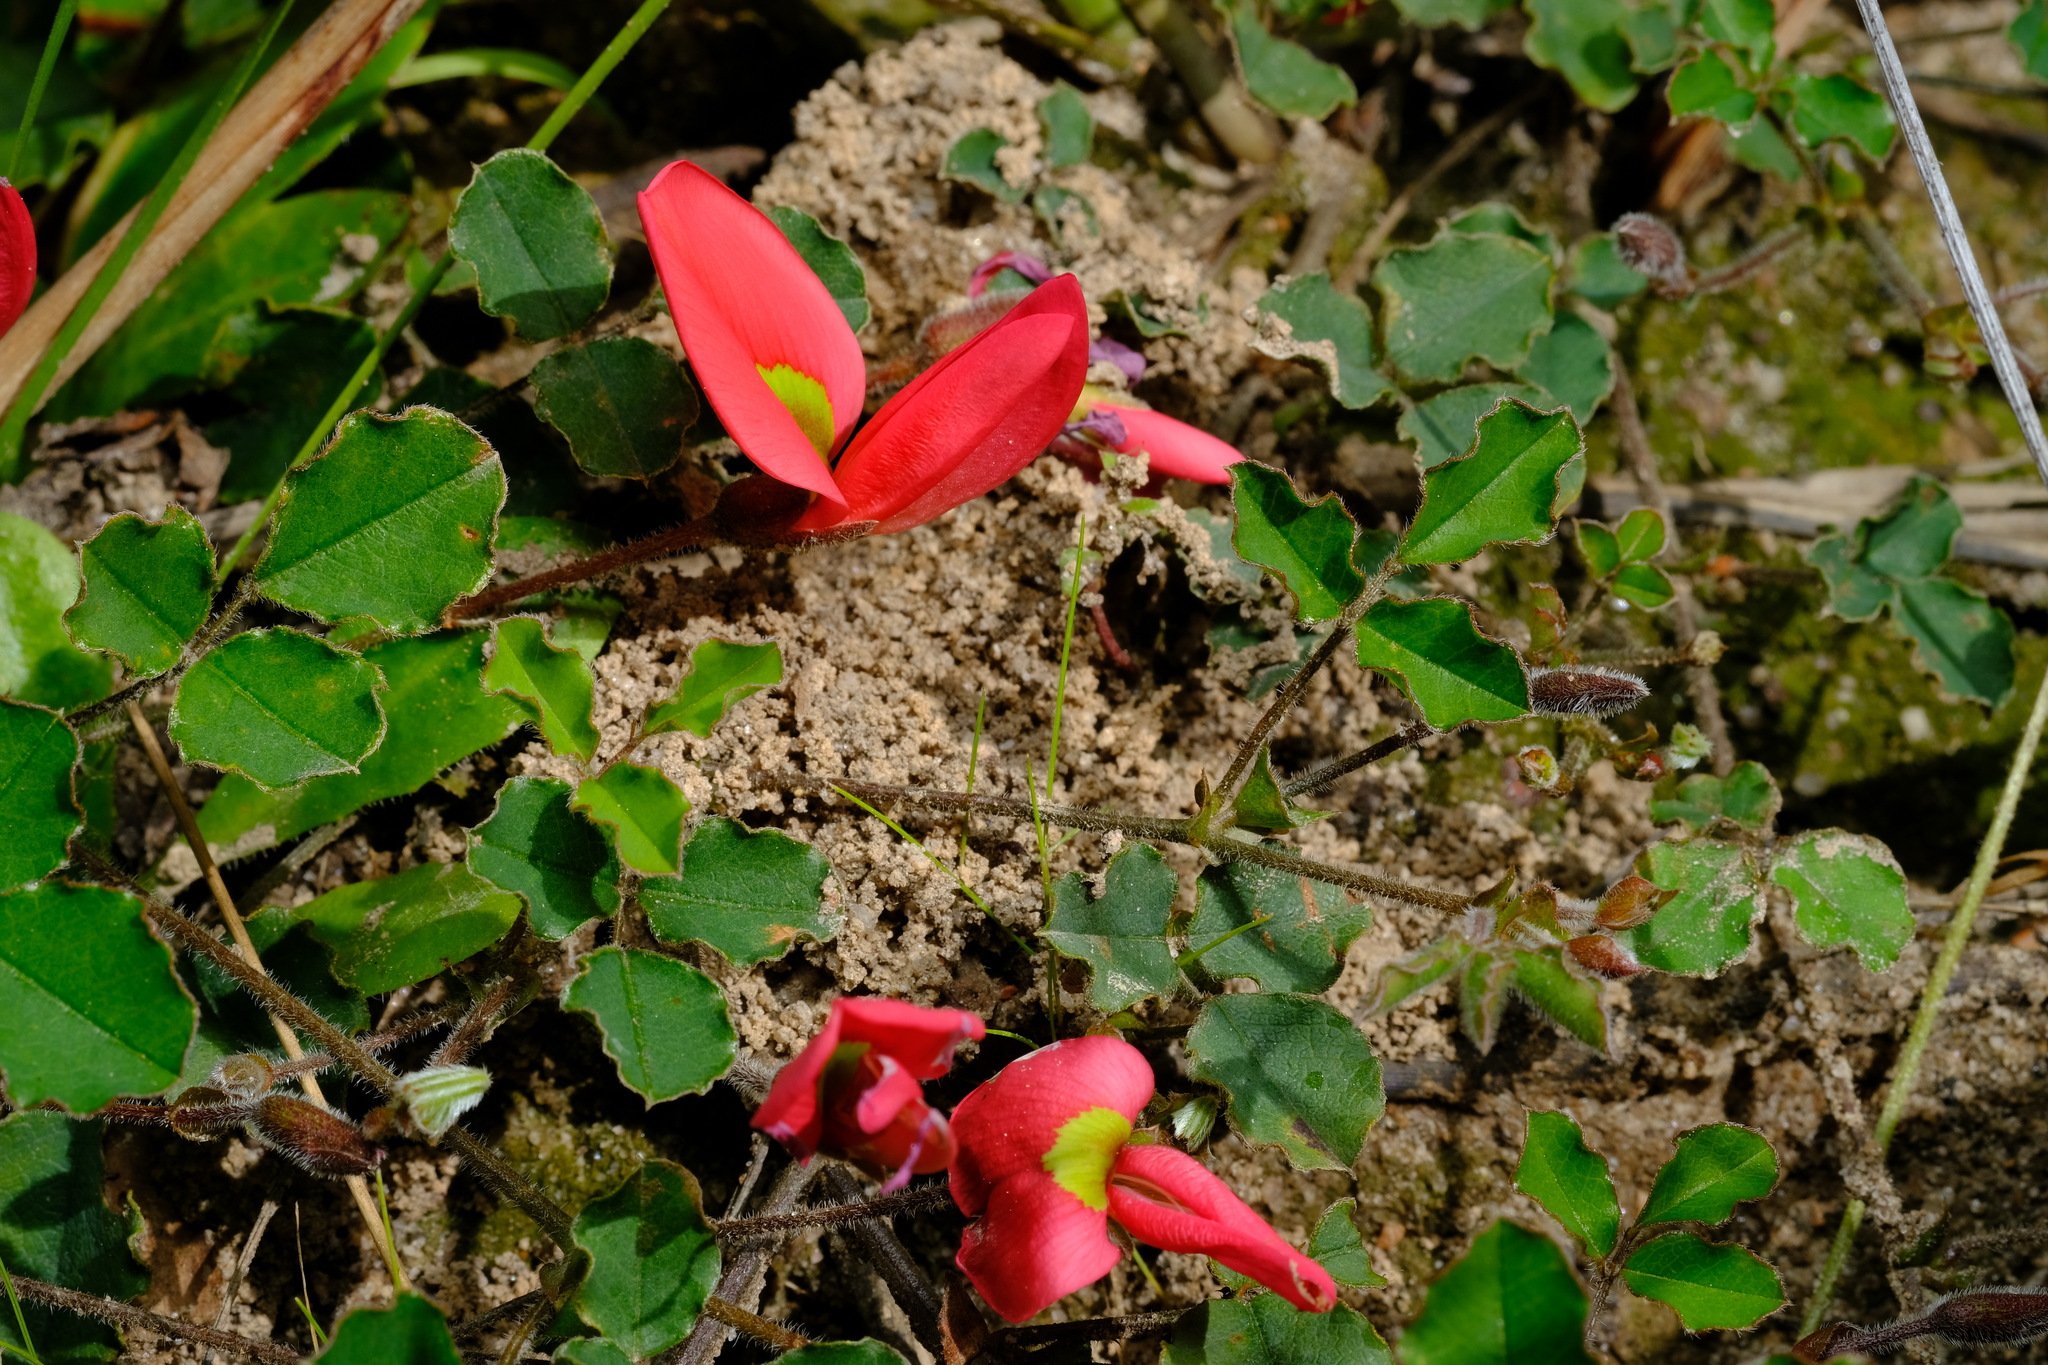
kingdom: Plantae
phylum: Tracheophyta
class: Magnoliopsida
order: Fabales
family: Fabaceae
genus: Kennedia
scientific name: Kennedia prostrata
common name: Running-postman
